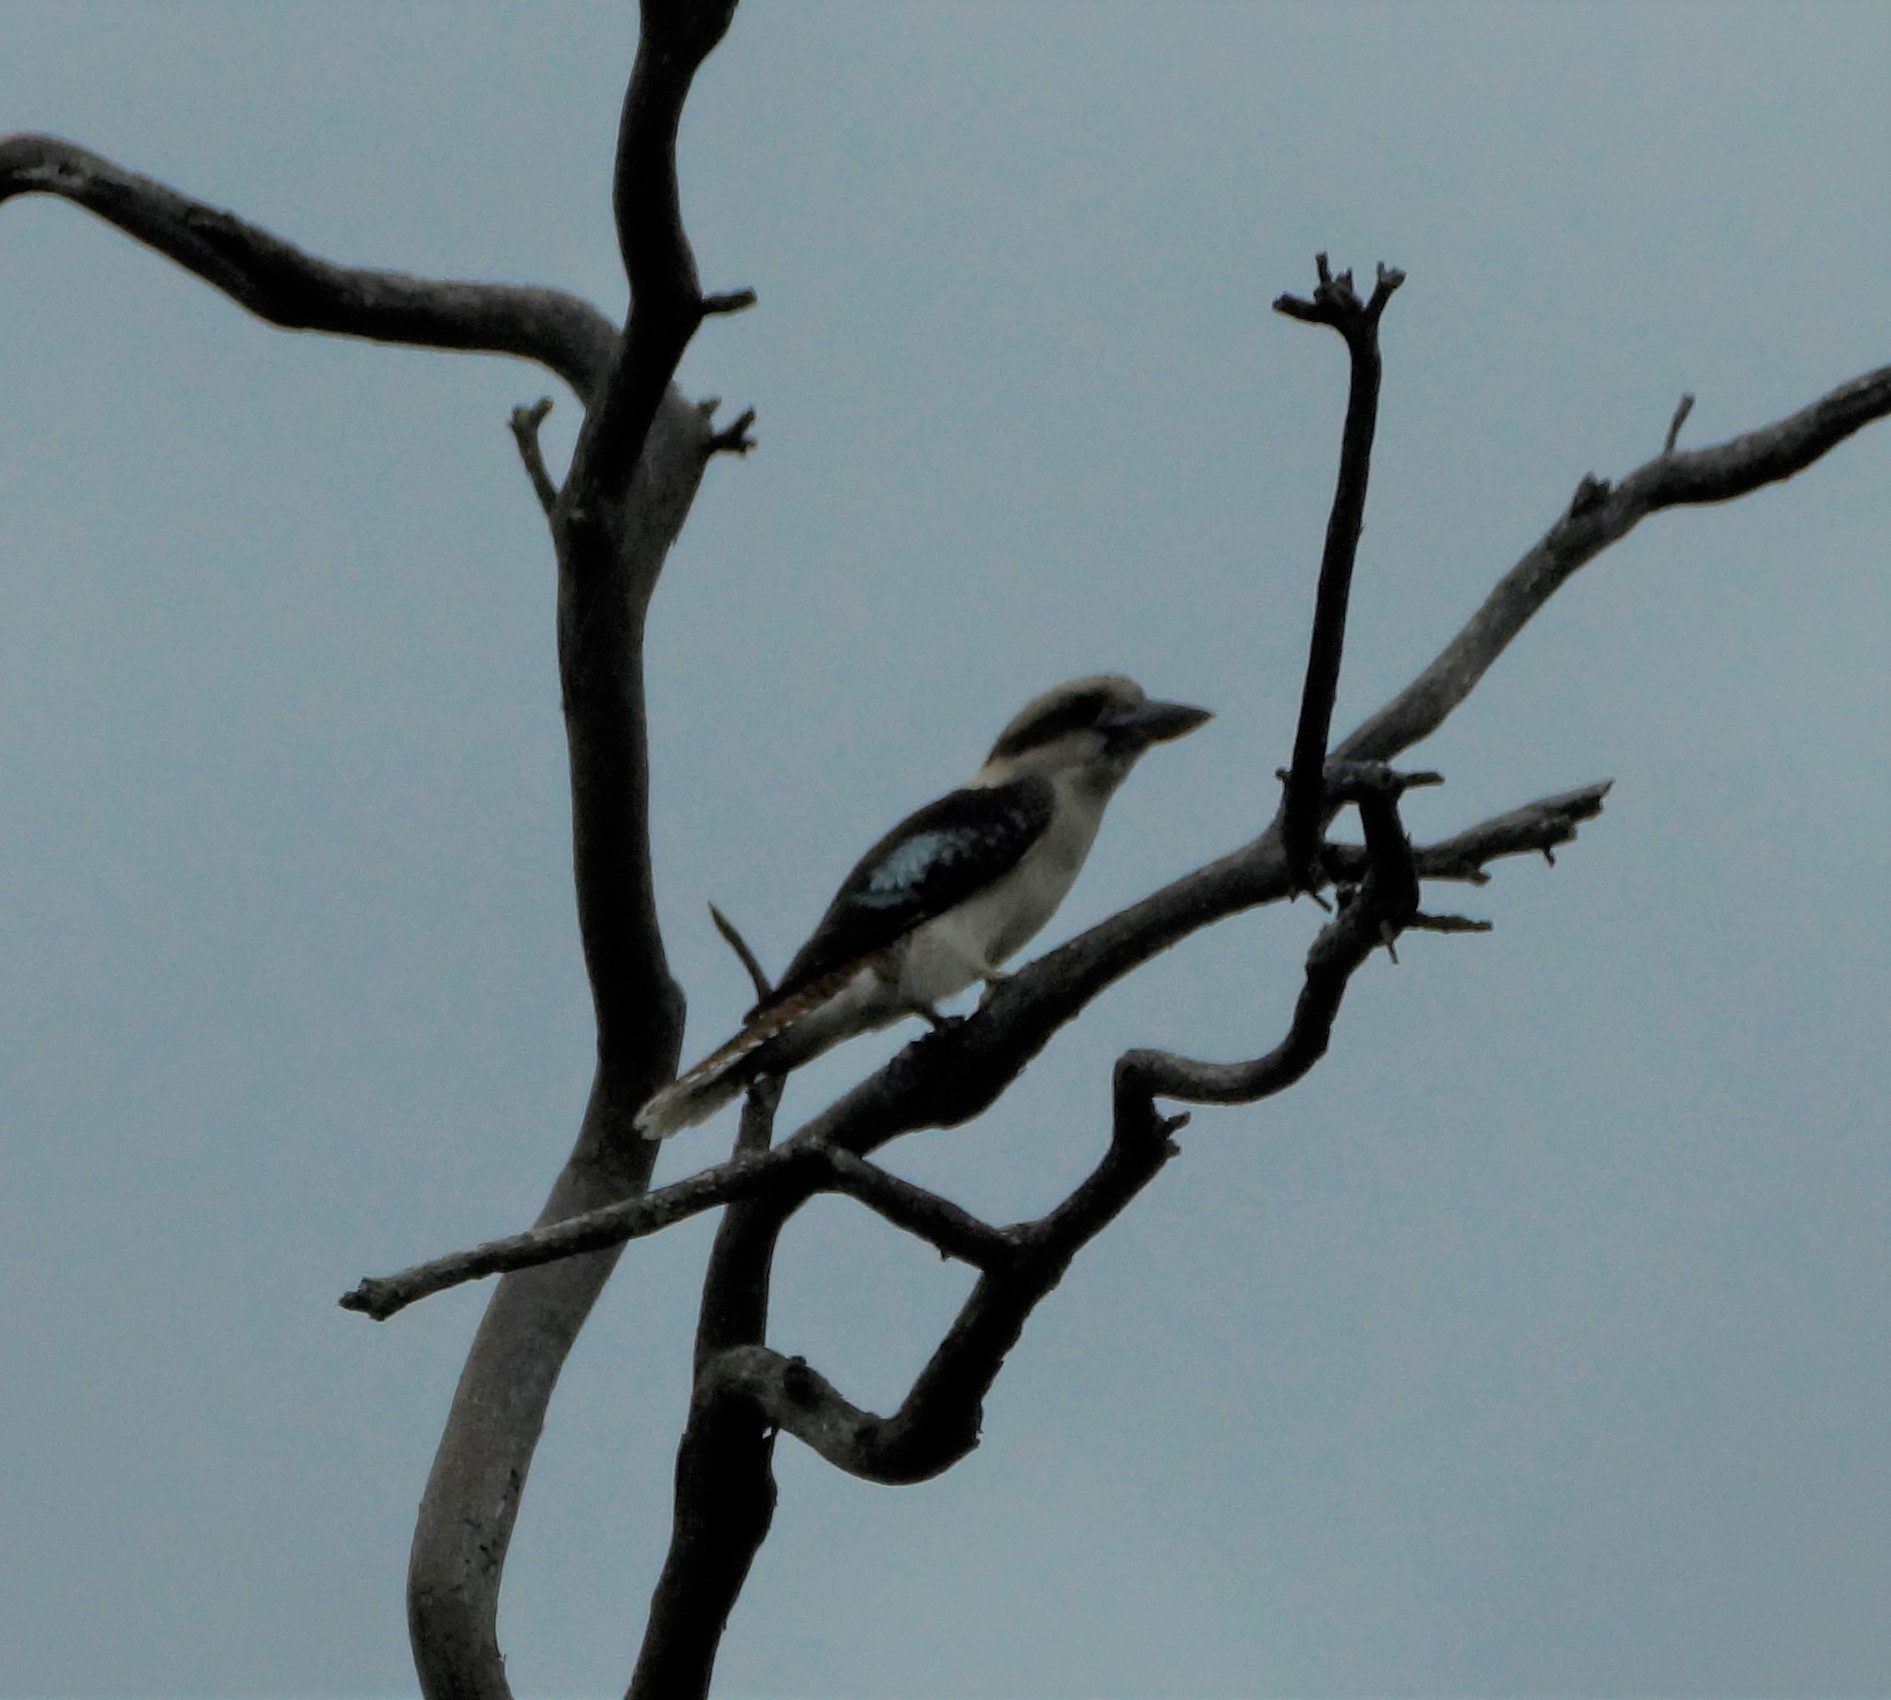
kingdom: Animalia
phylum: Chordata
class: Aves
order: Coraciiformes
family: Alcedinidae
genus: Dacelo
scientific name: Dacelo novaeguineae
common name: Laughing kookaburra
